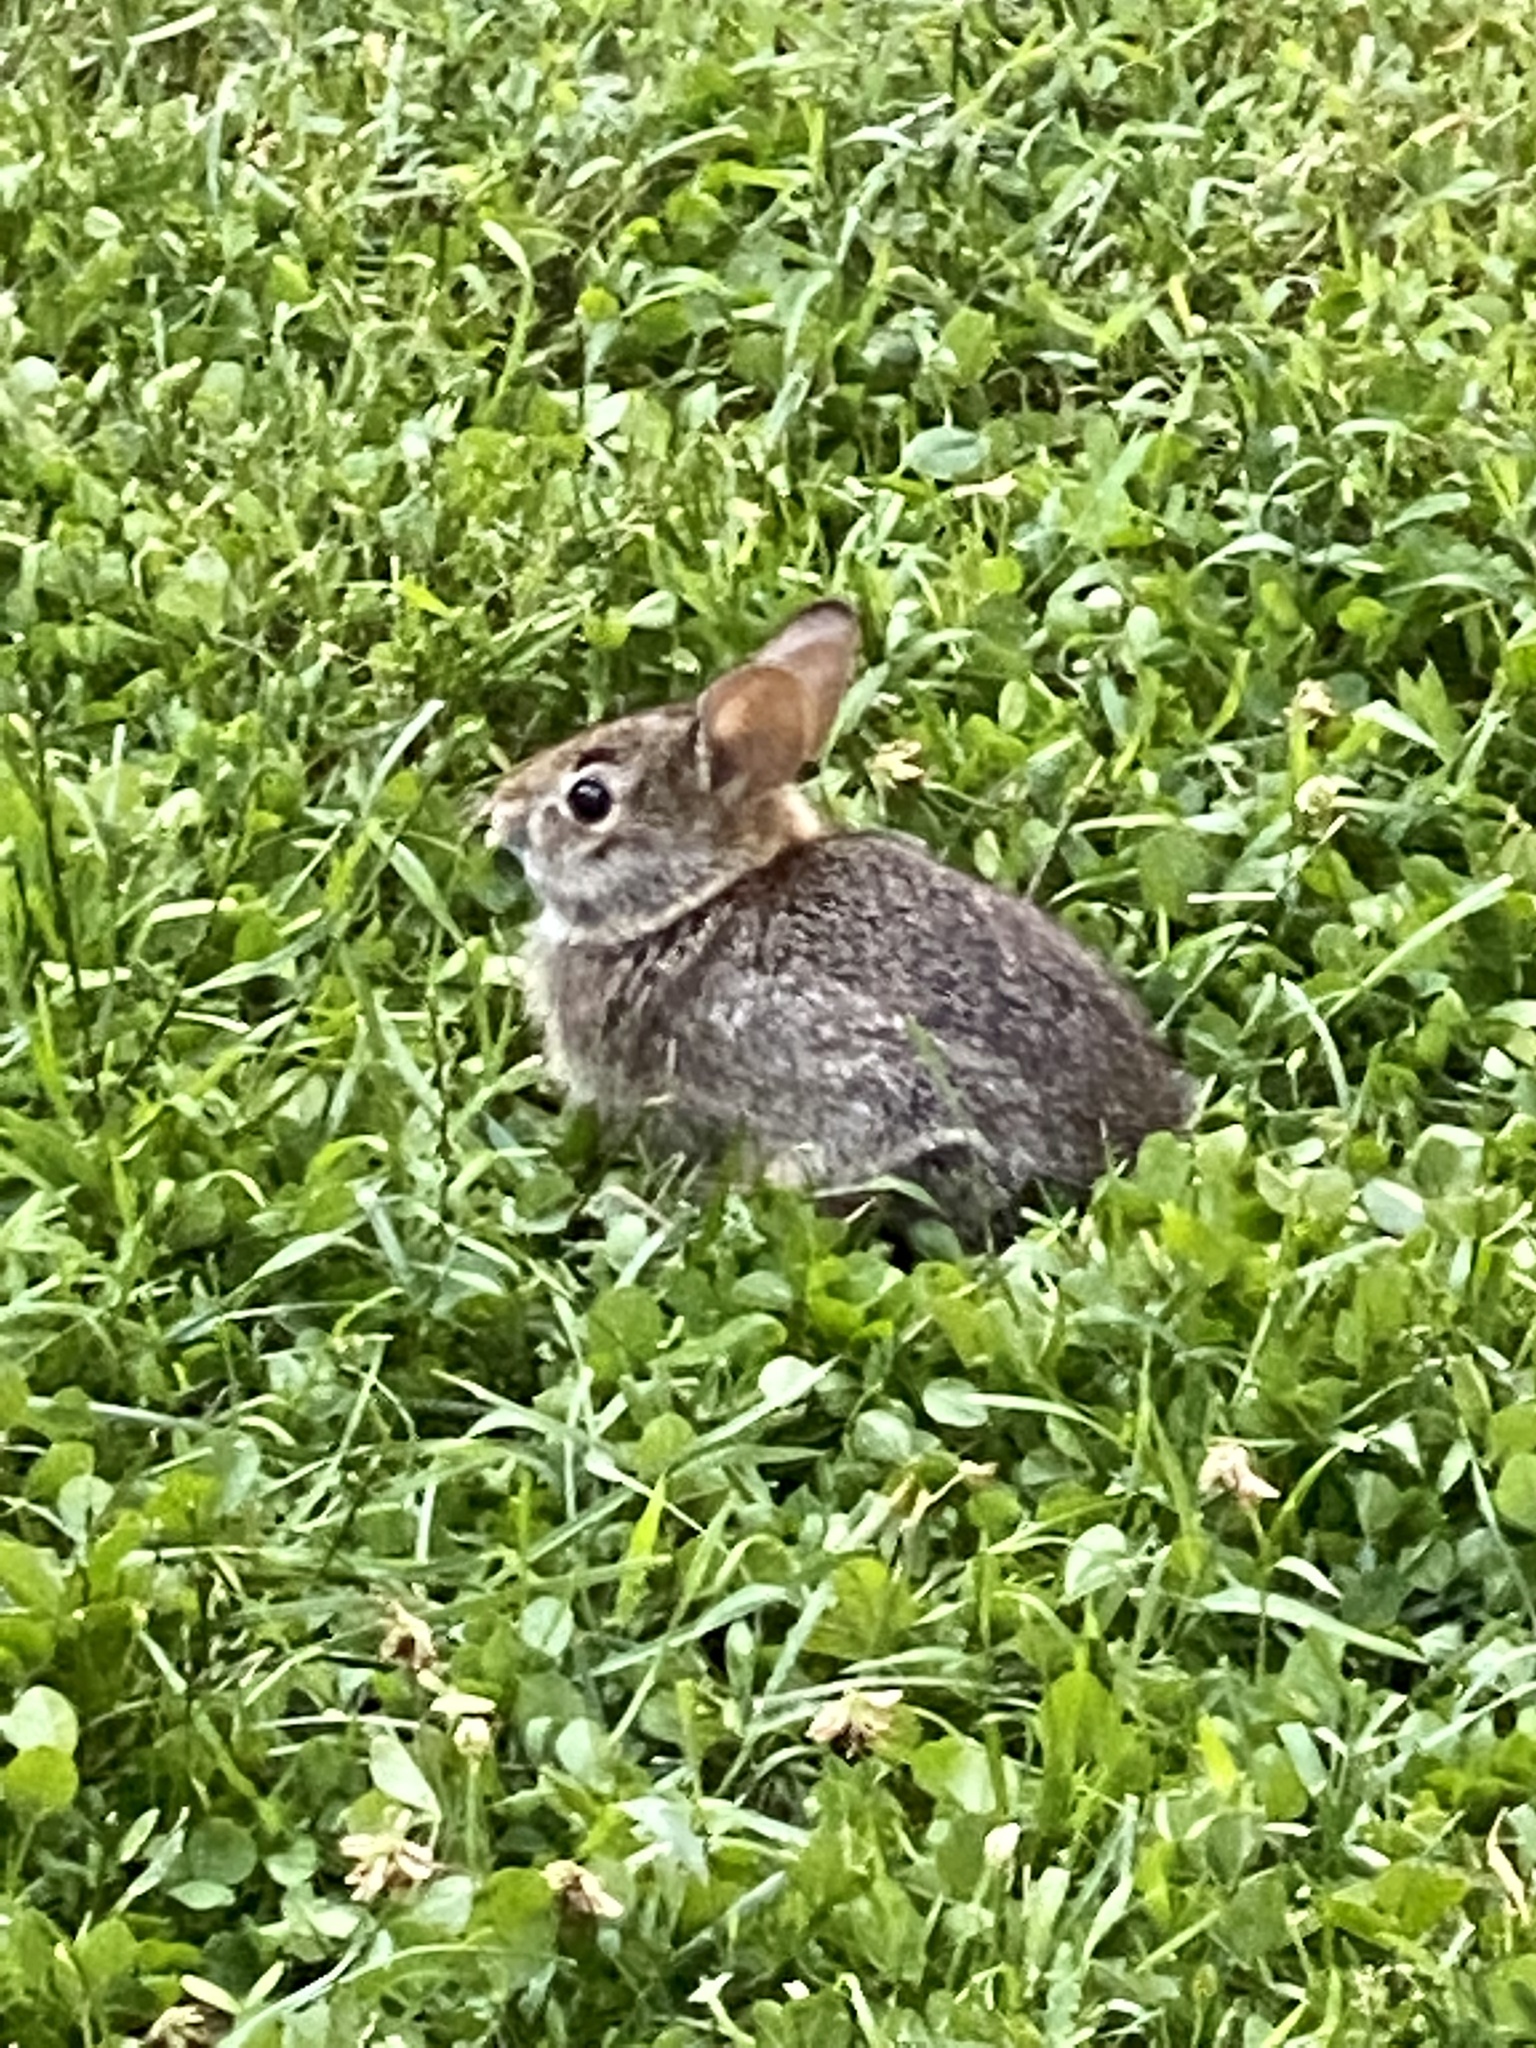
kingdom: Animalia
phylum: Chordata
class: Mammalia
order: Lagomorpha
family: Leporidae
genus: Sylvilagus
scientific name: Sylvilagus floridanus
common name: Eastern cottontail
